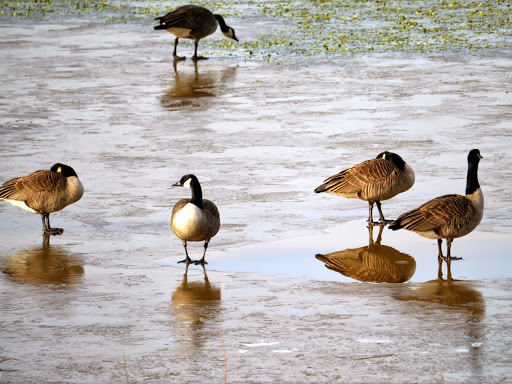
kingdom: Animalia
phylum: Chordata
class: Aves
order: Anseriformes
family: Anatidae
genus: Branta
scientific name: Branta canadensis
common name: Canada goose
